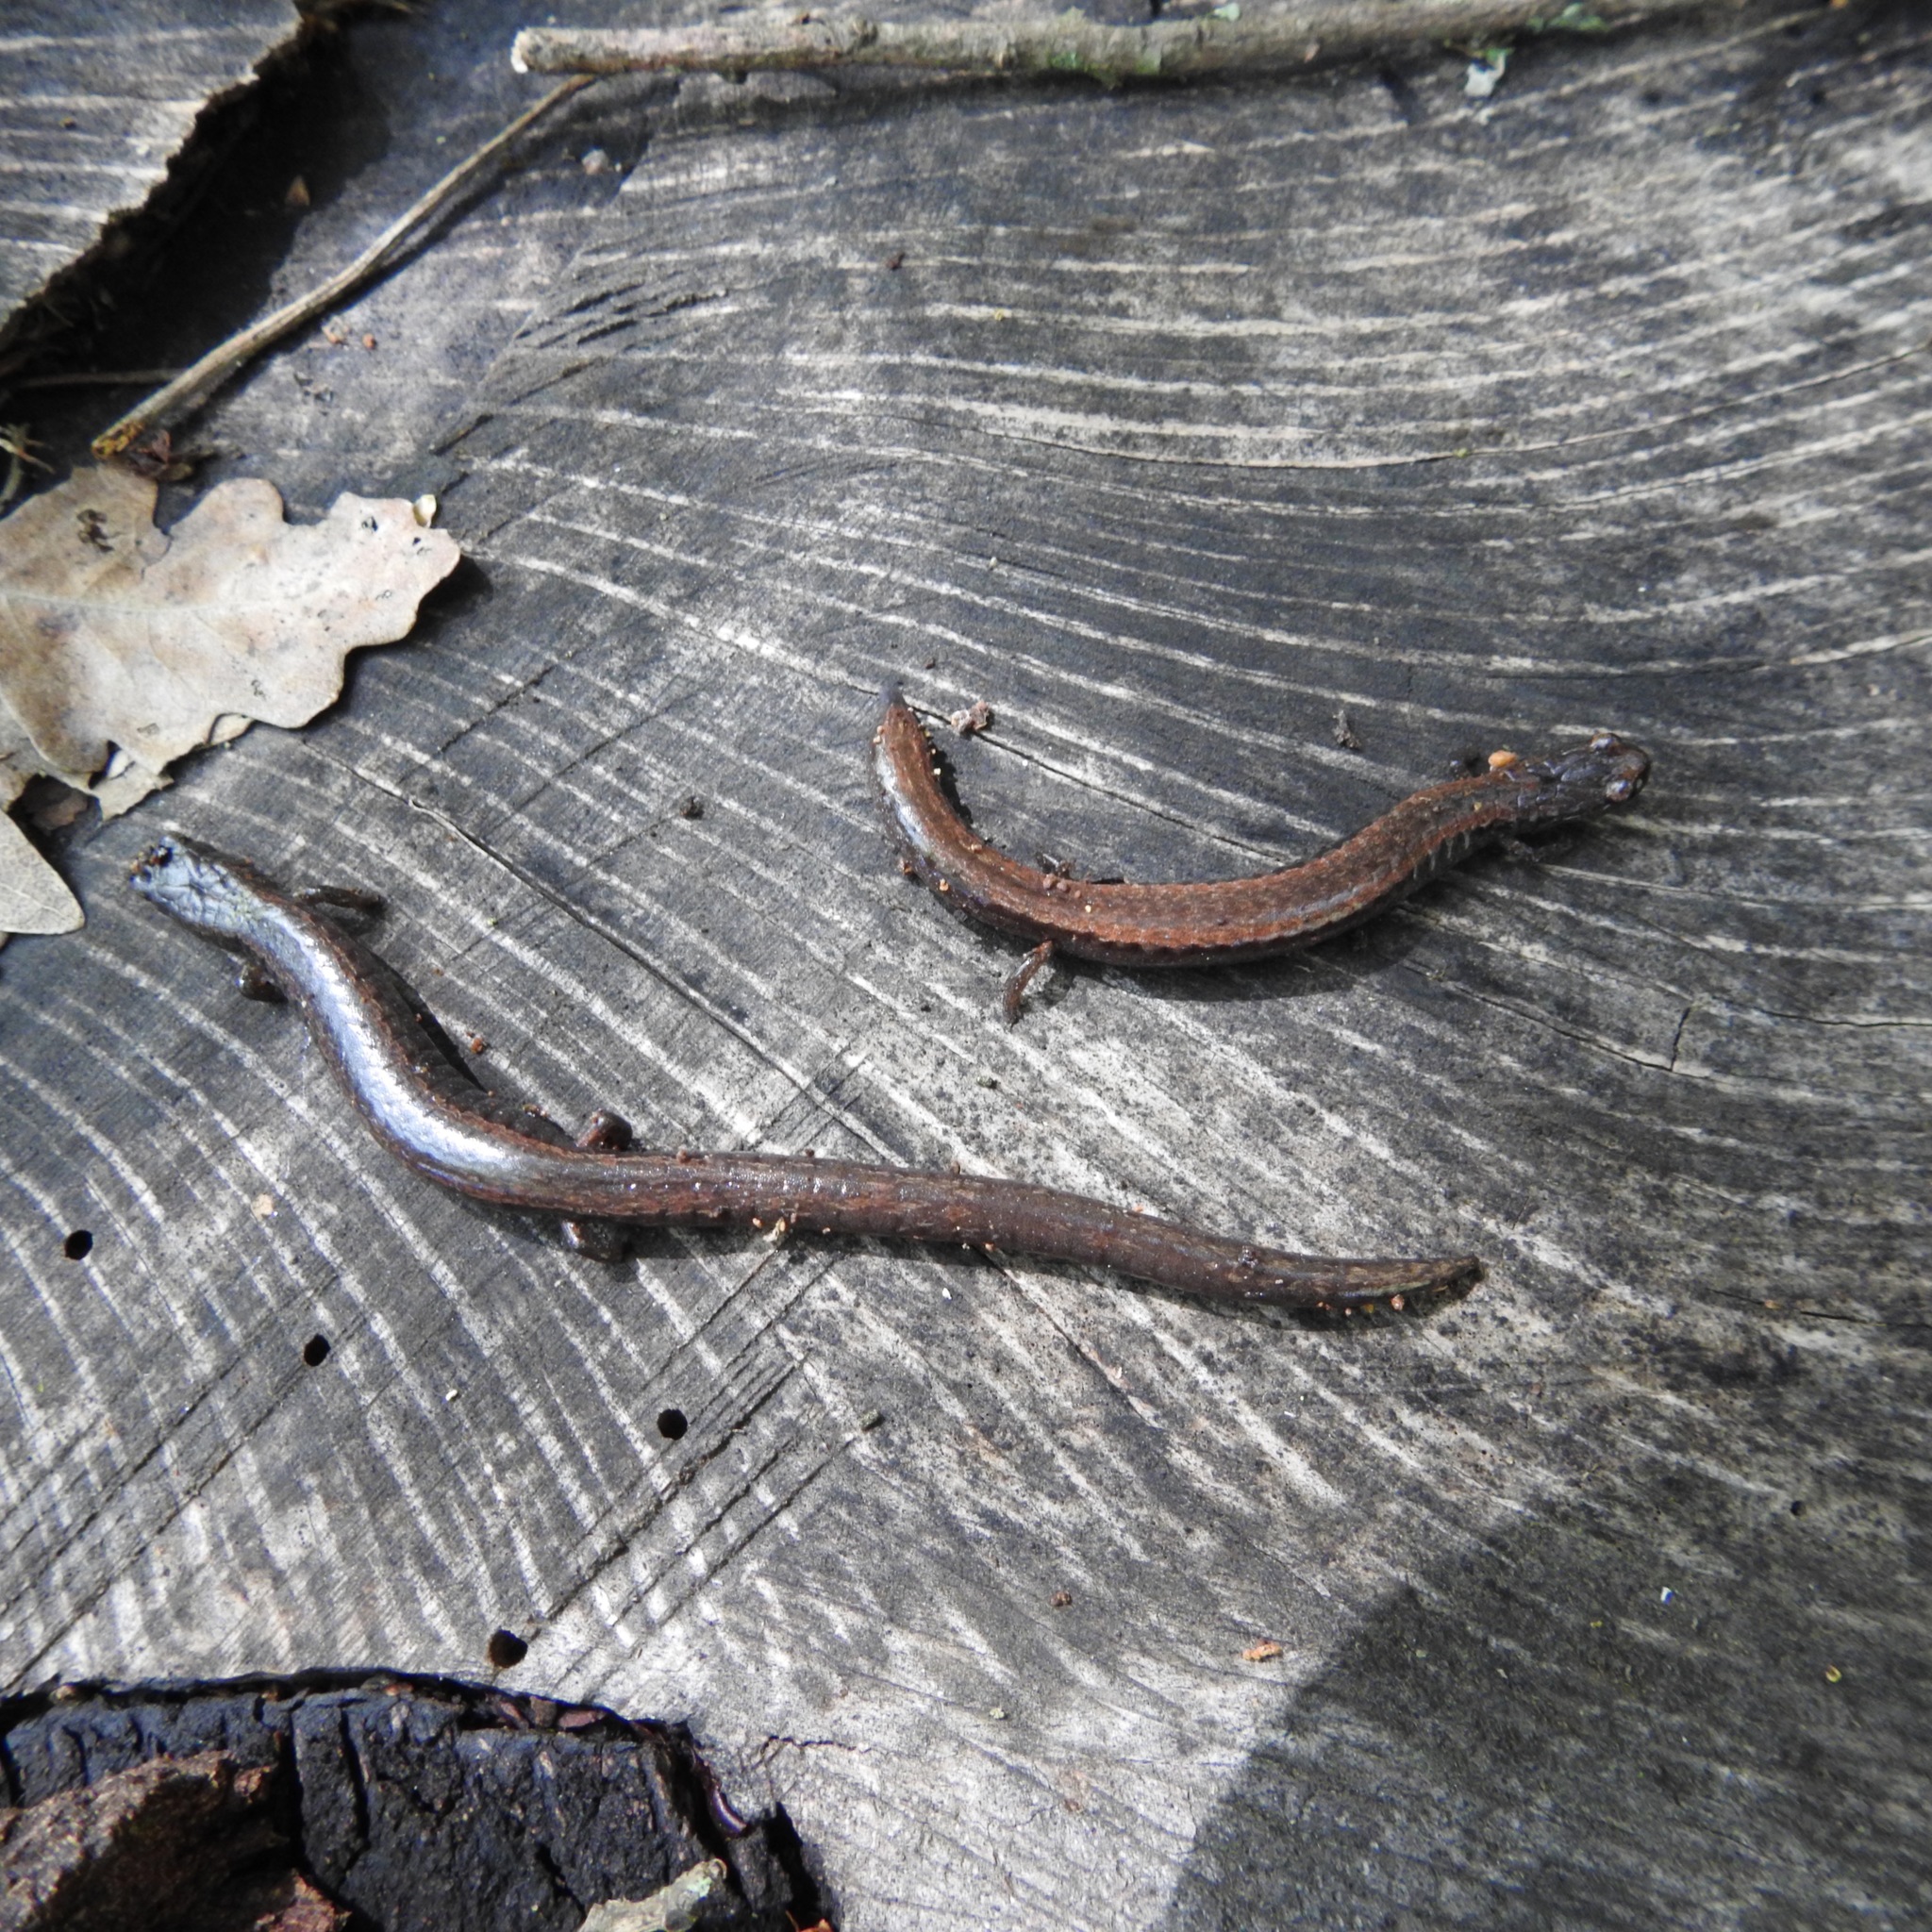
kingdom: Animalia
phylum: Chordata
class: Amphibia
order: Caudata
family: Plethodontidae
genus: Batrachoseps
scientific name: Batrachoseps attenuatus
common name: California slender salamander
